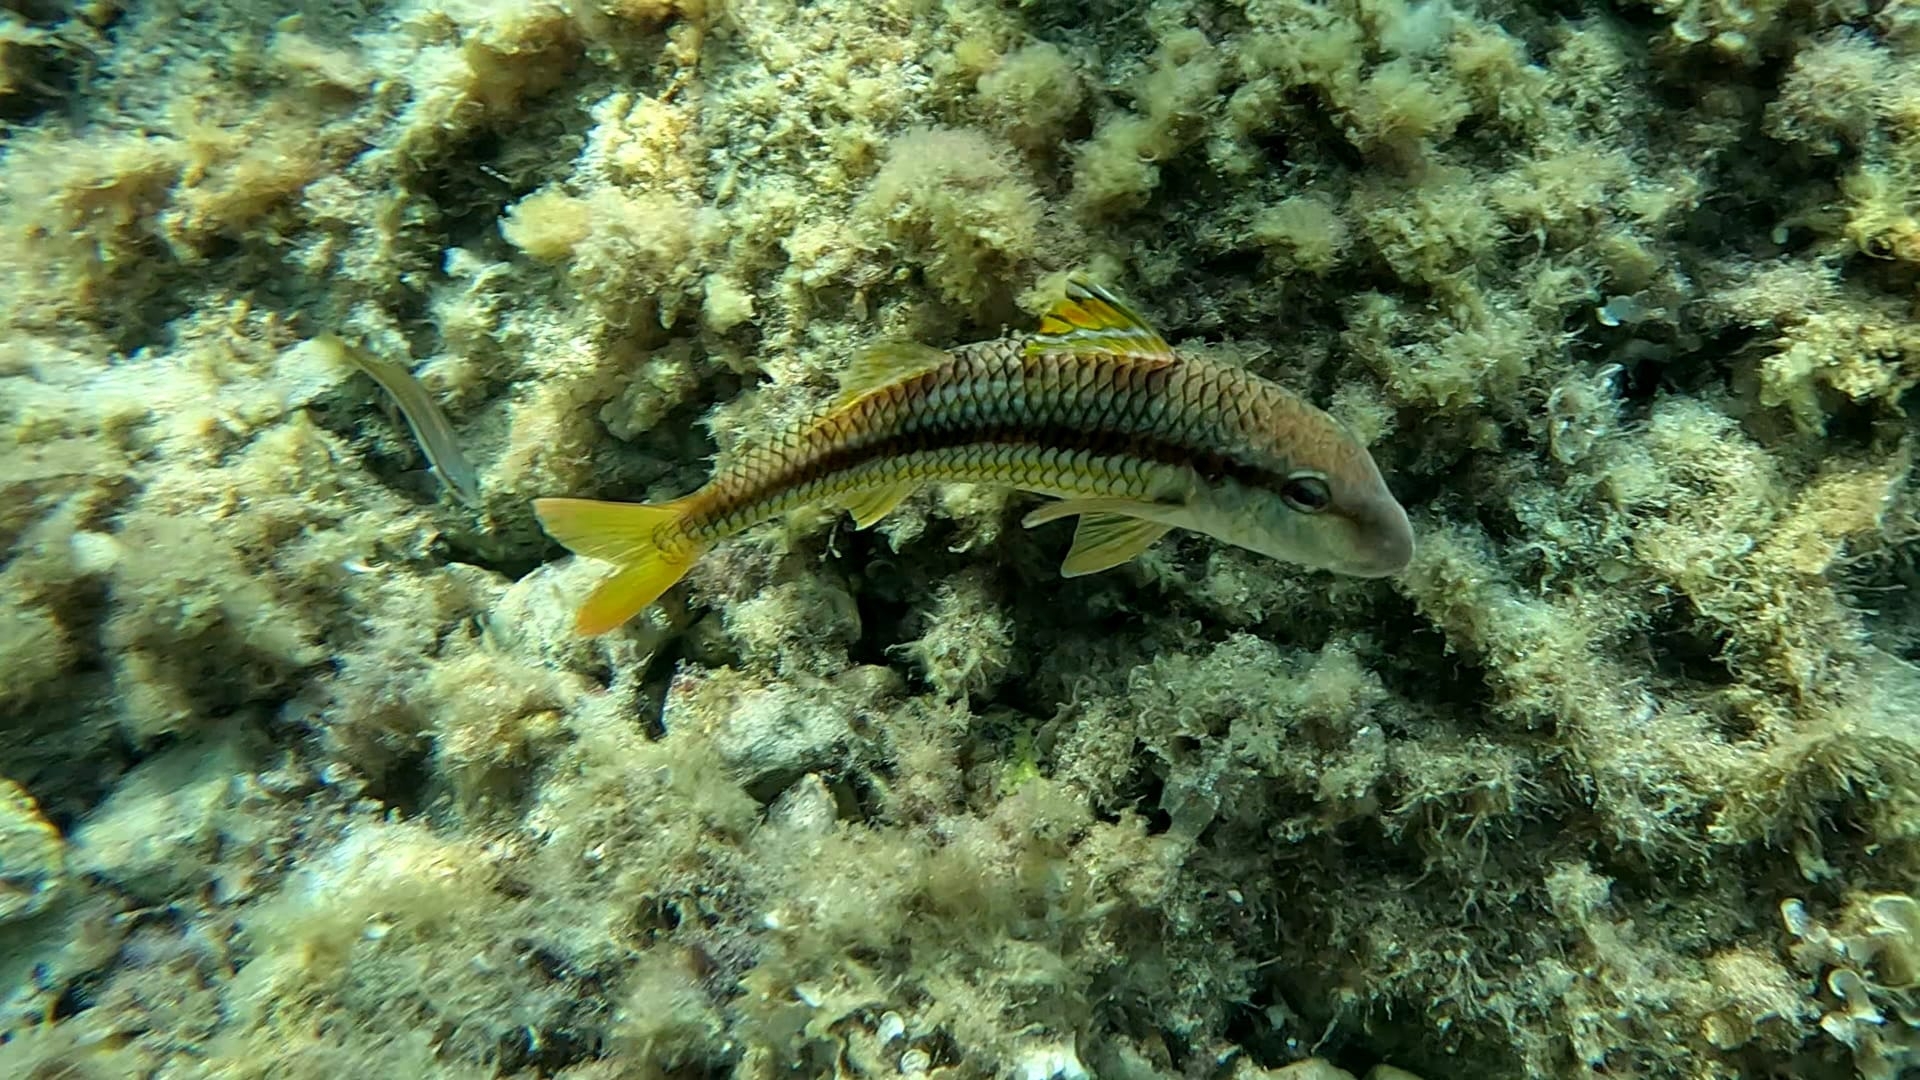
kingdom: Animalia
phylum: Chordata
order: Perciformes
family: Mullidae
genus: Mullus
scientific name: Mullus surmuletus
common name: Red mullet
